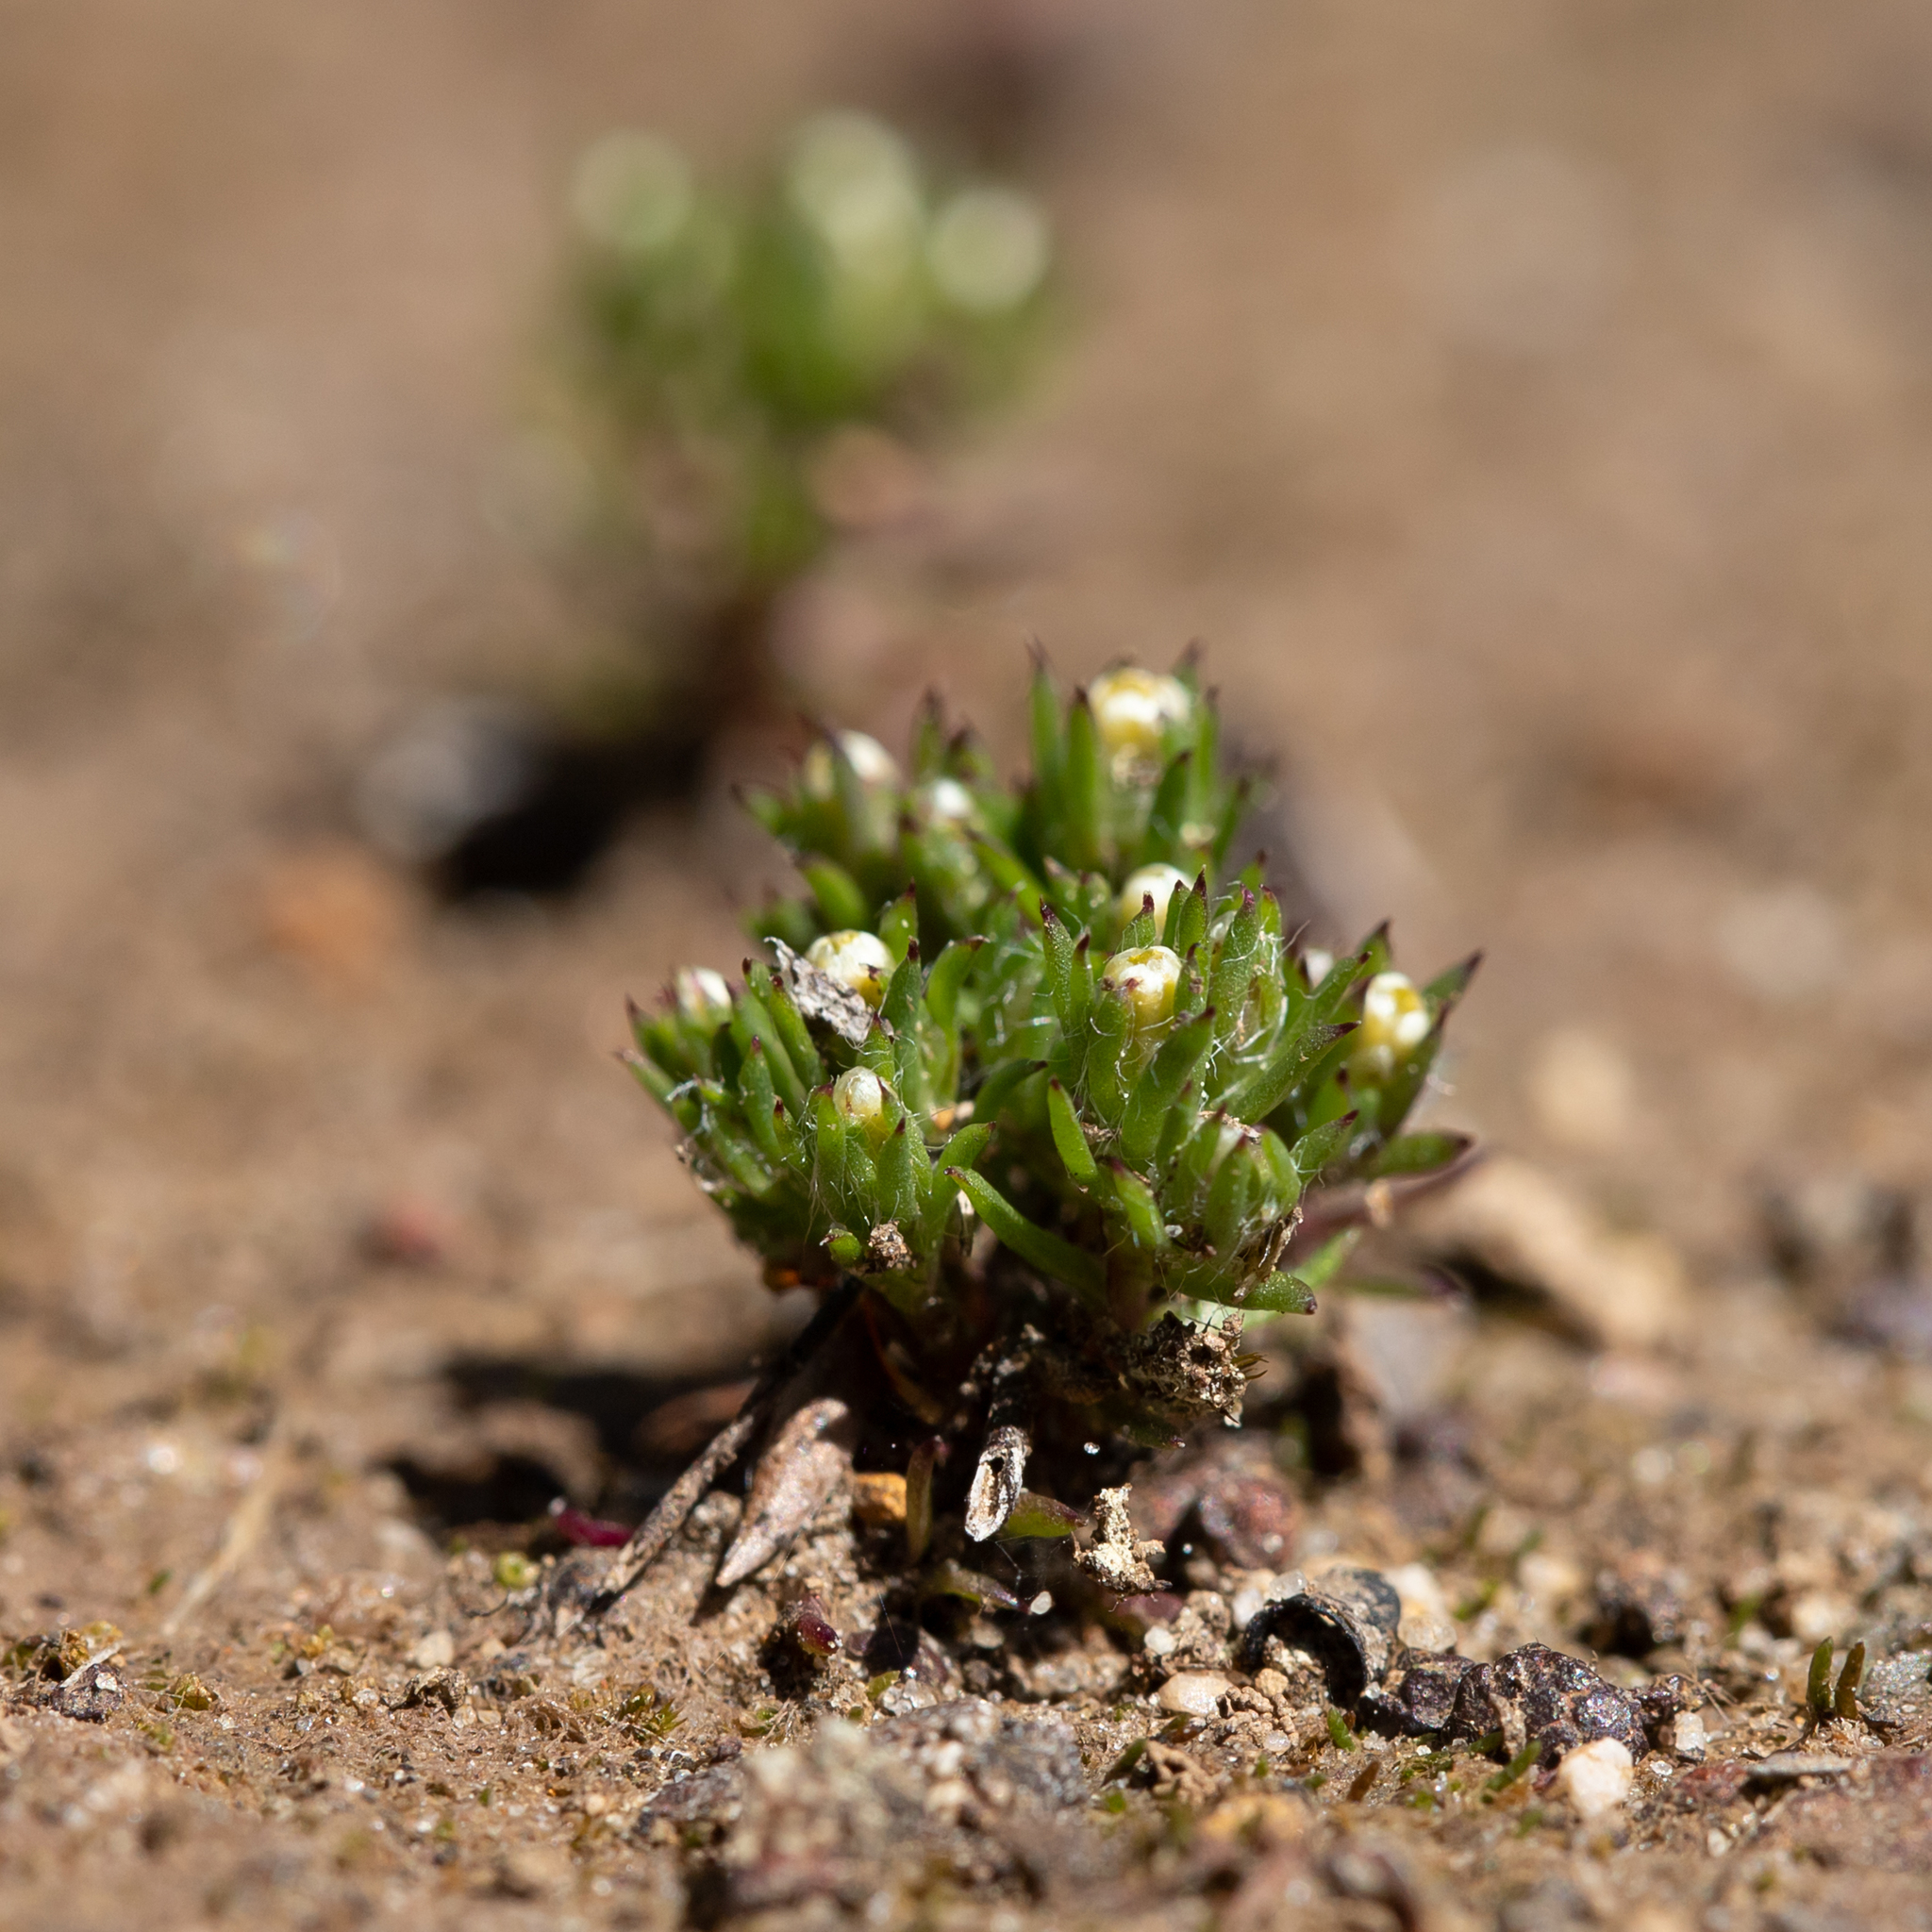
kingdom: Plantae
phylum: Tracheophyta
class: Magnoliopsida
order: Asterales
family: Asteraceae
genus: Hyalosperma
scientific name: Hyalosperma demissum
